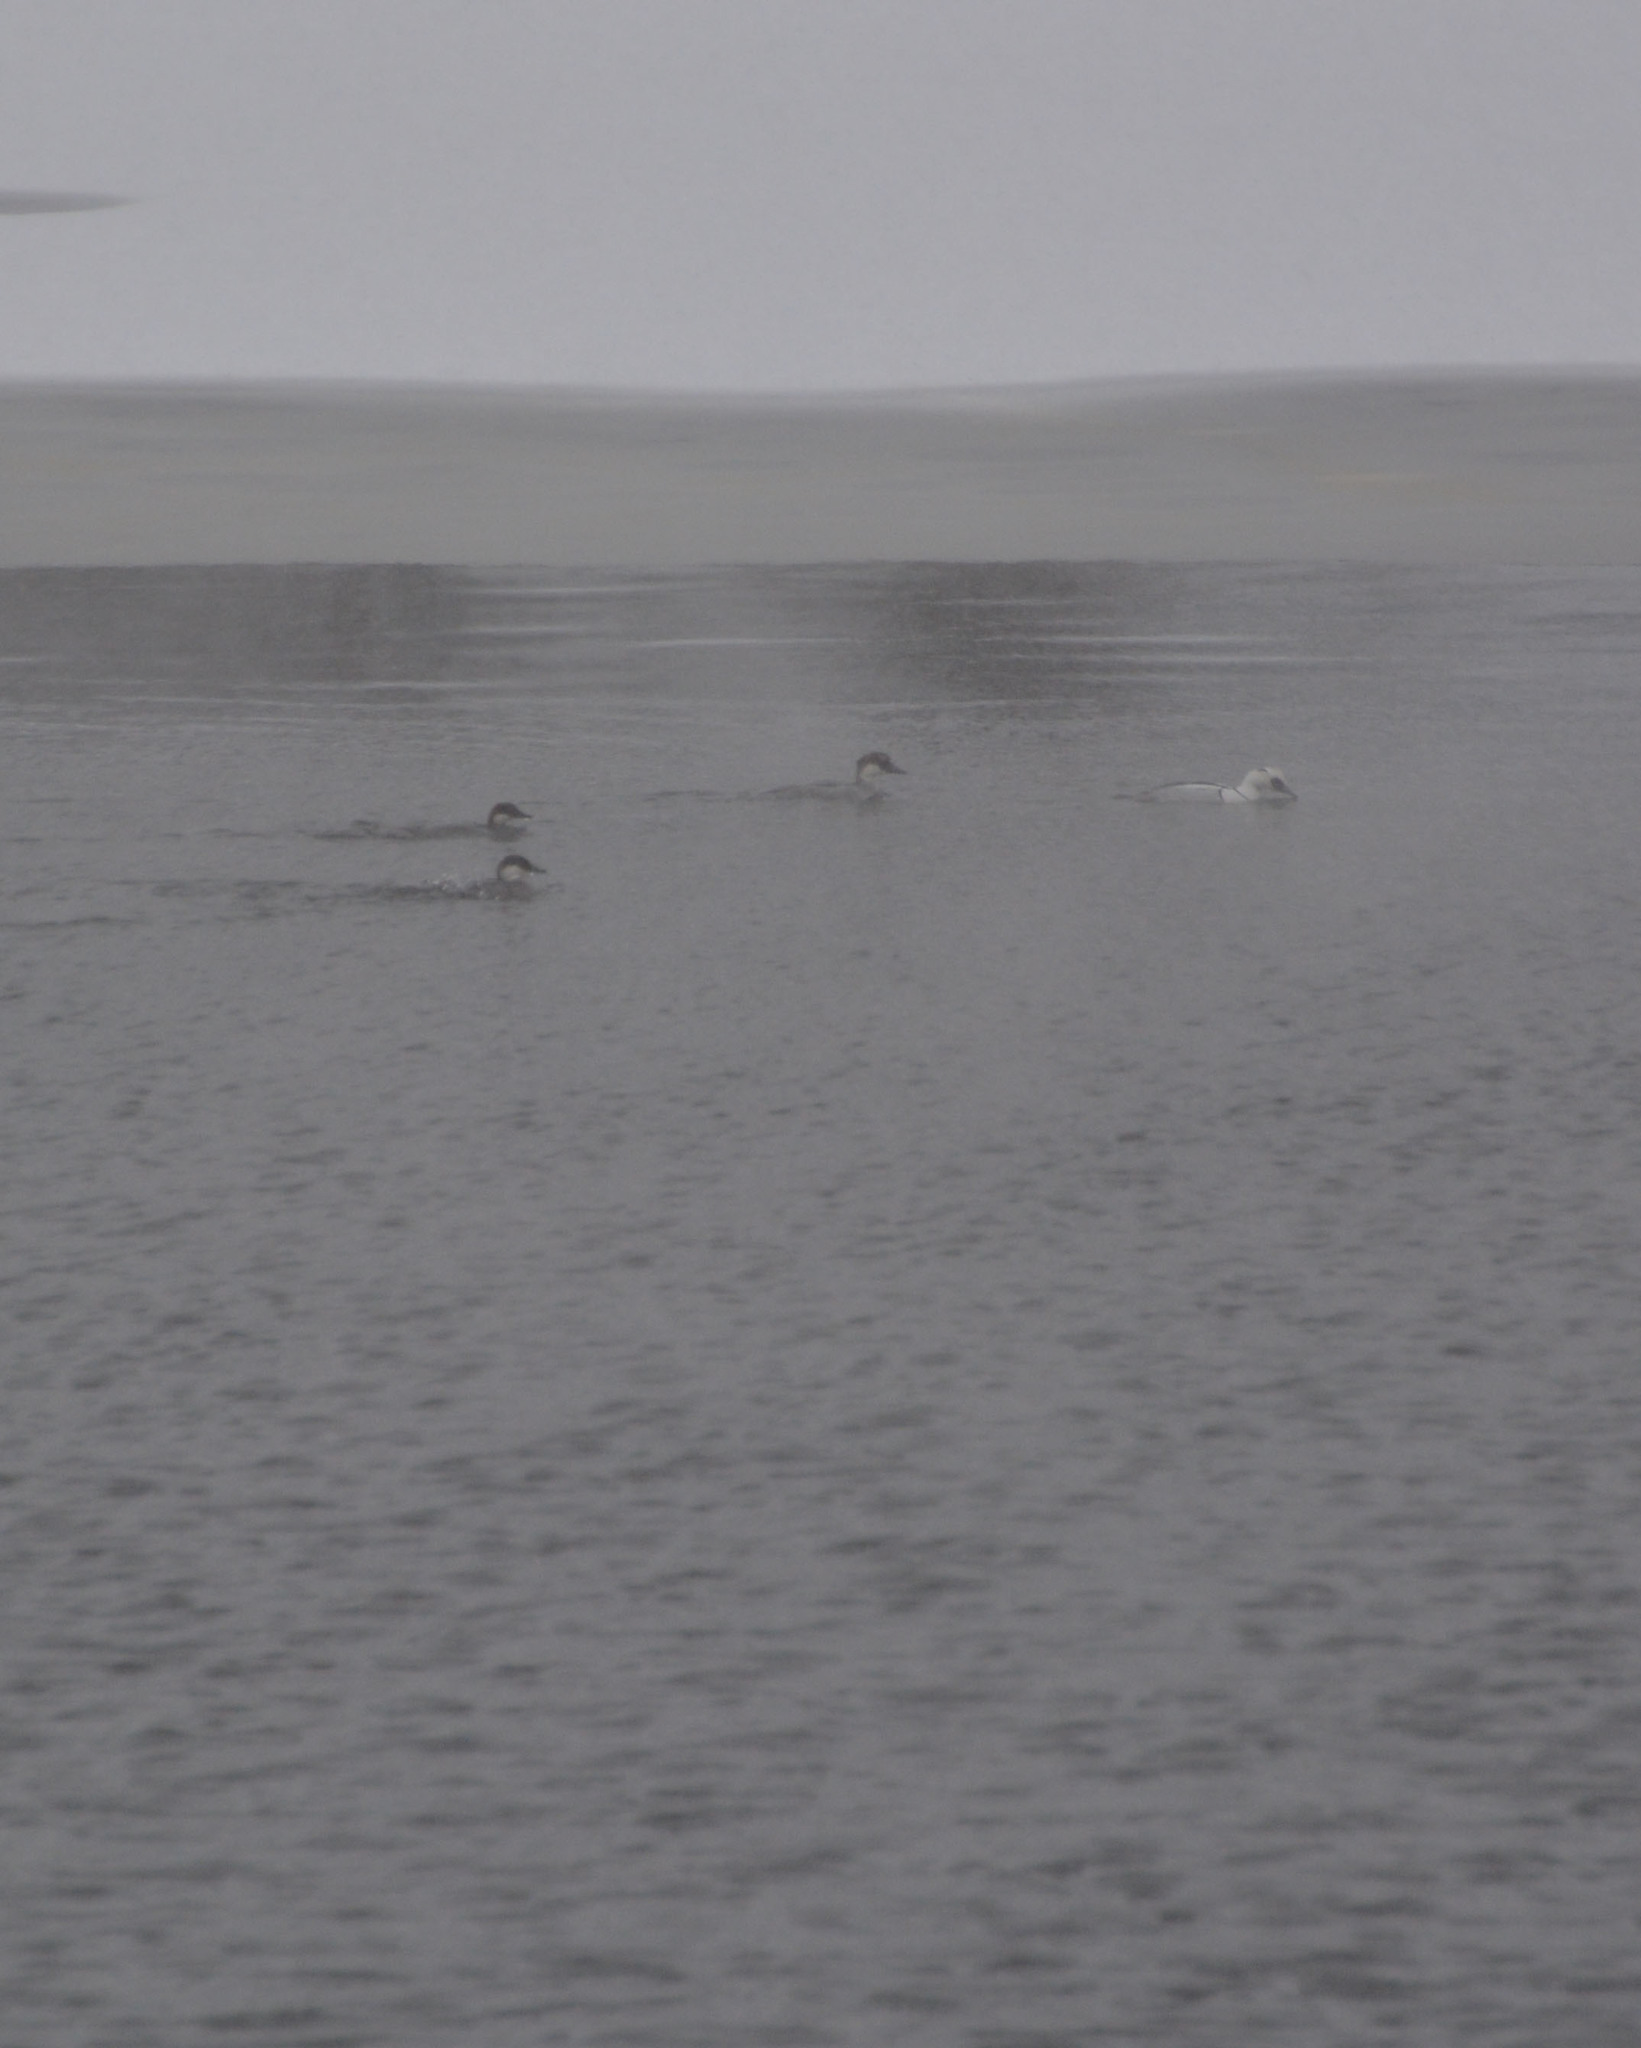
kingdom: Animalia
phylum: Chordata
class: Aves
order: Anseriformes
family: Anatidae
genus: Mergellus
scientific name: Mergellus albellus
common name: Smew
